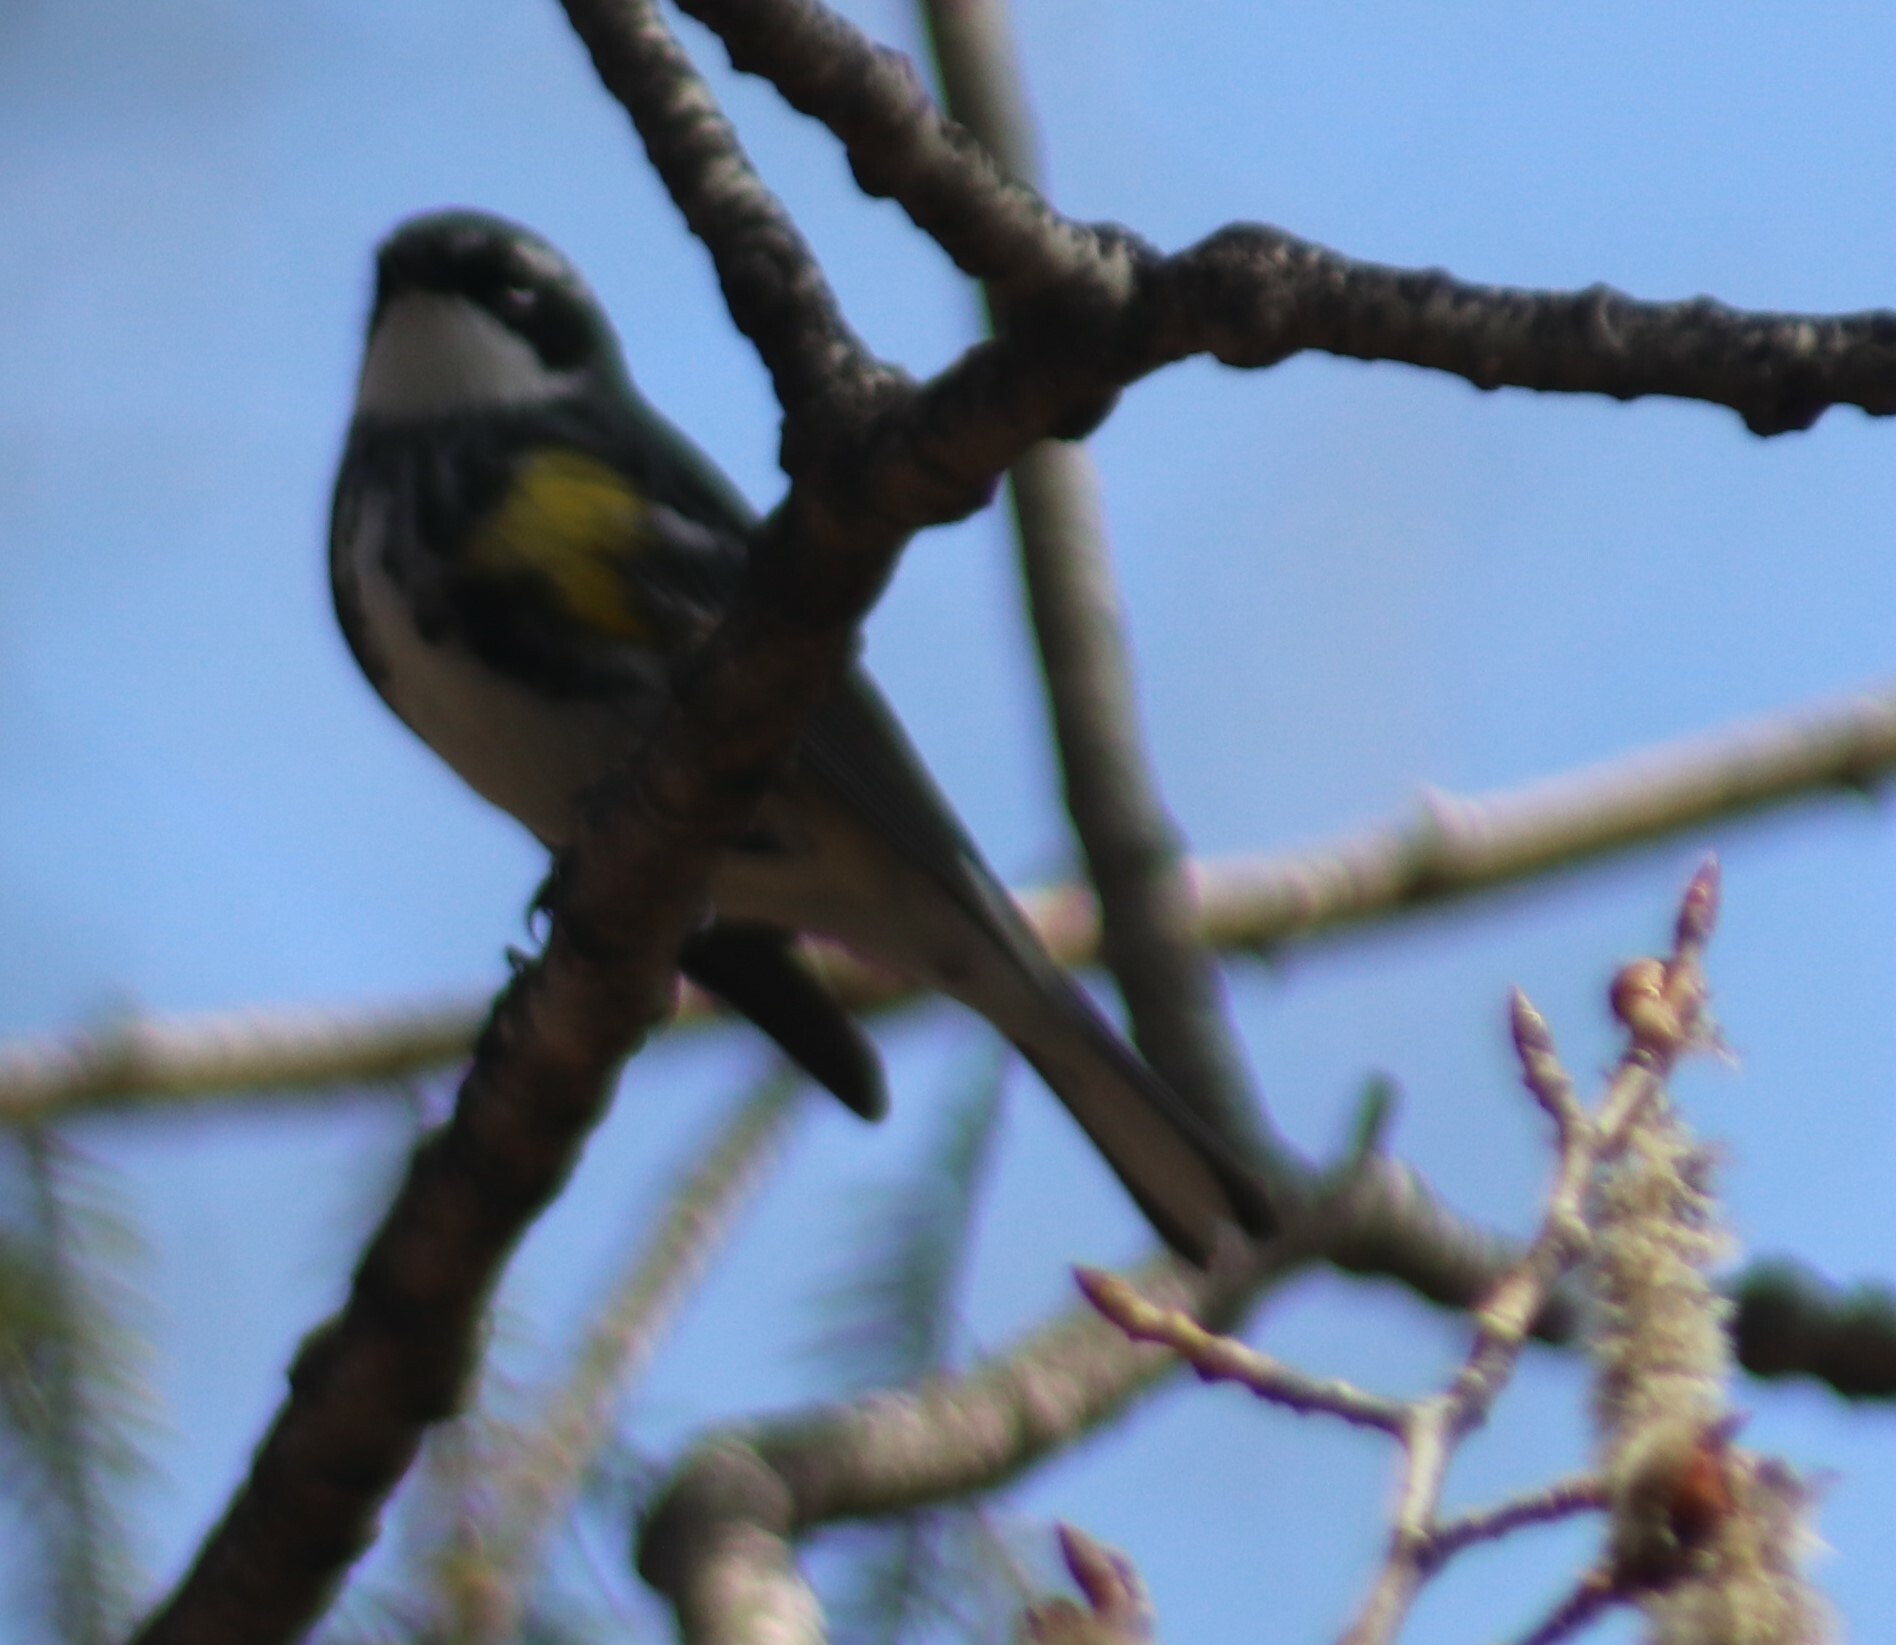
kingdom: Animalia
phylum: Chordata
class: Aves
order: Passeriformes
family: Parulidae
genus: Setophaga
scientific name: Setophaga coronata
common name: Myrtle warbler
